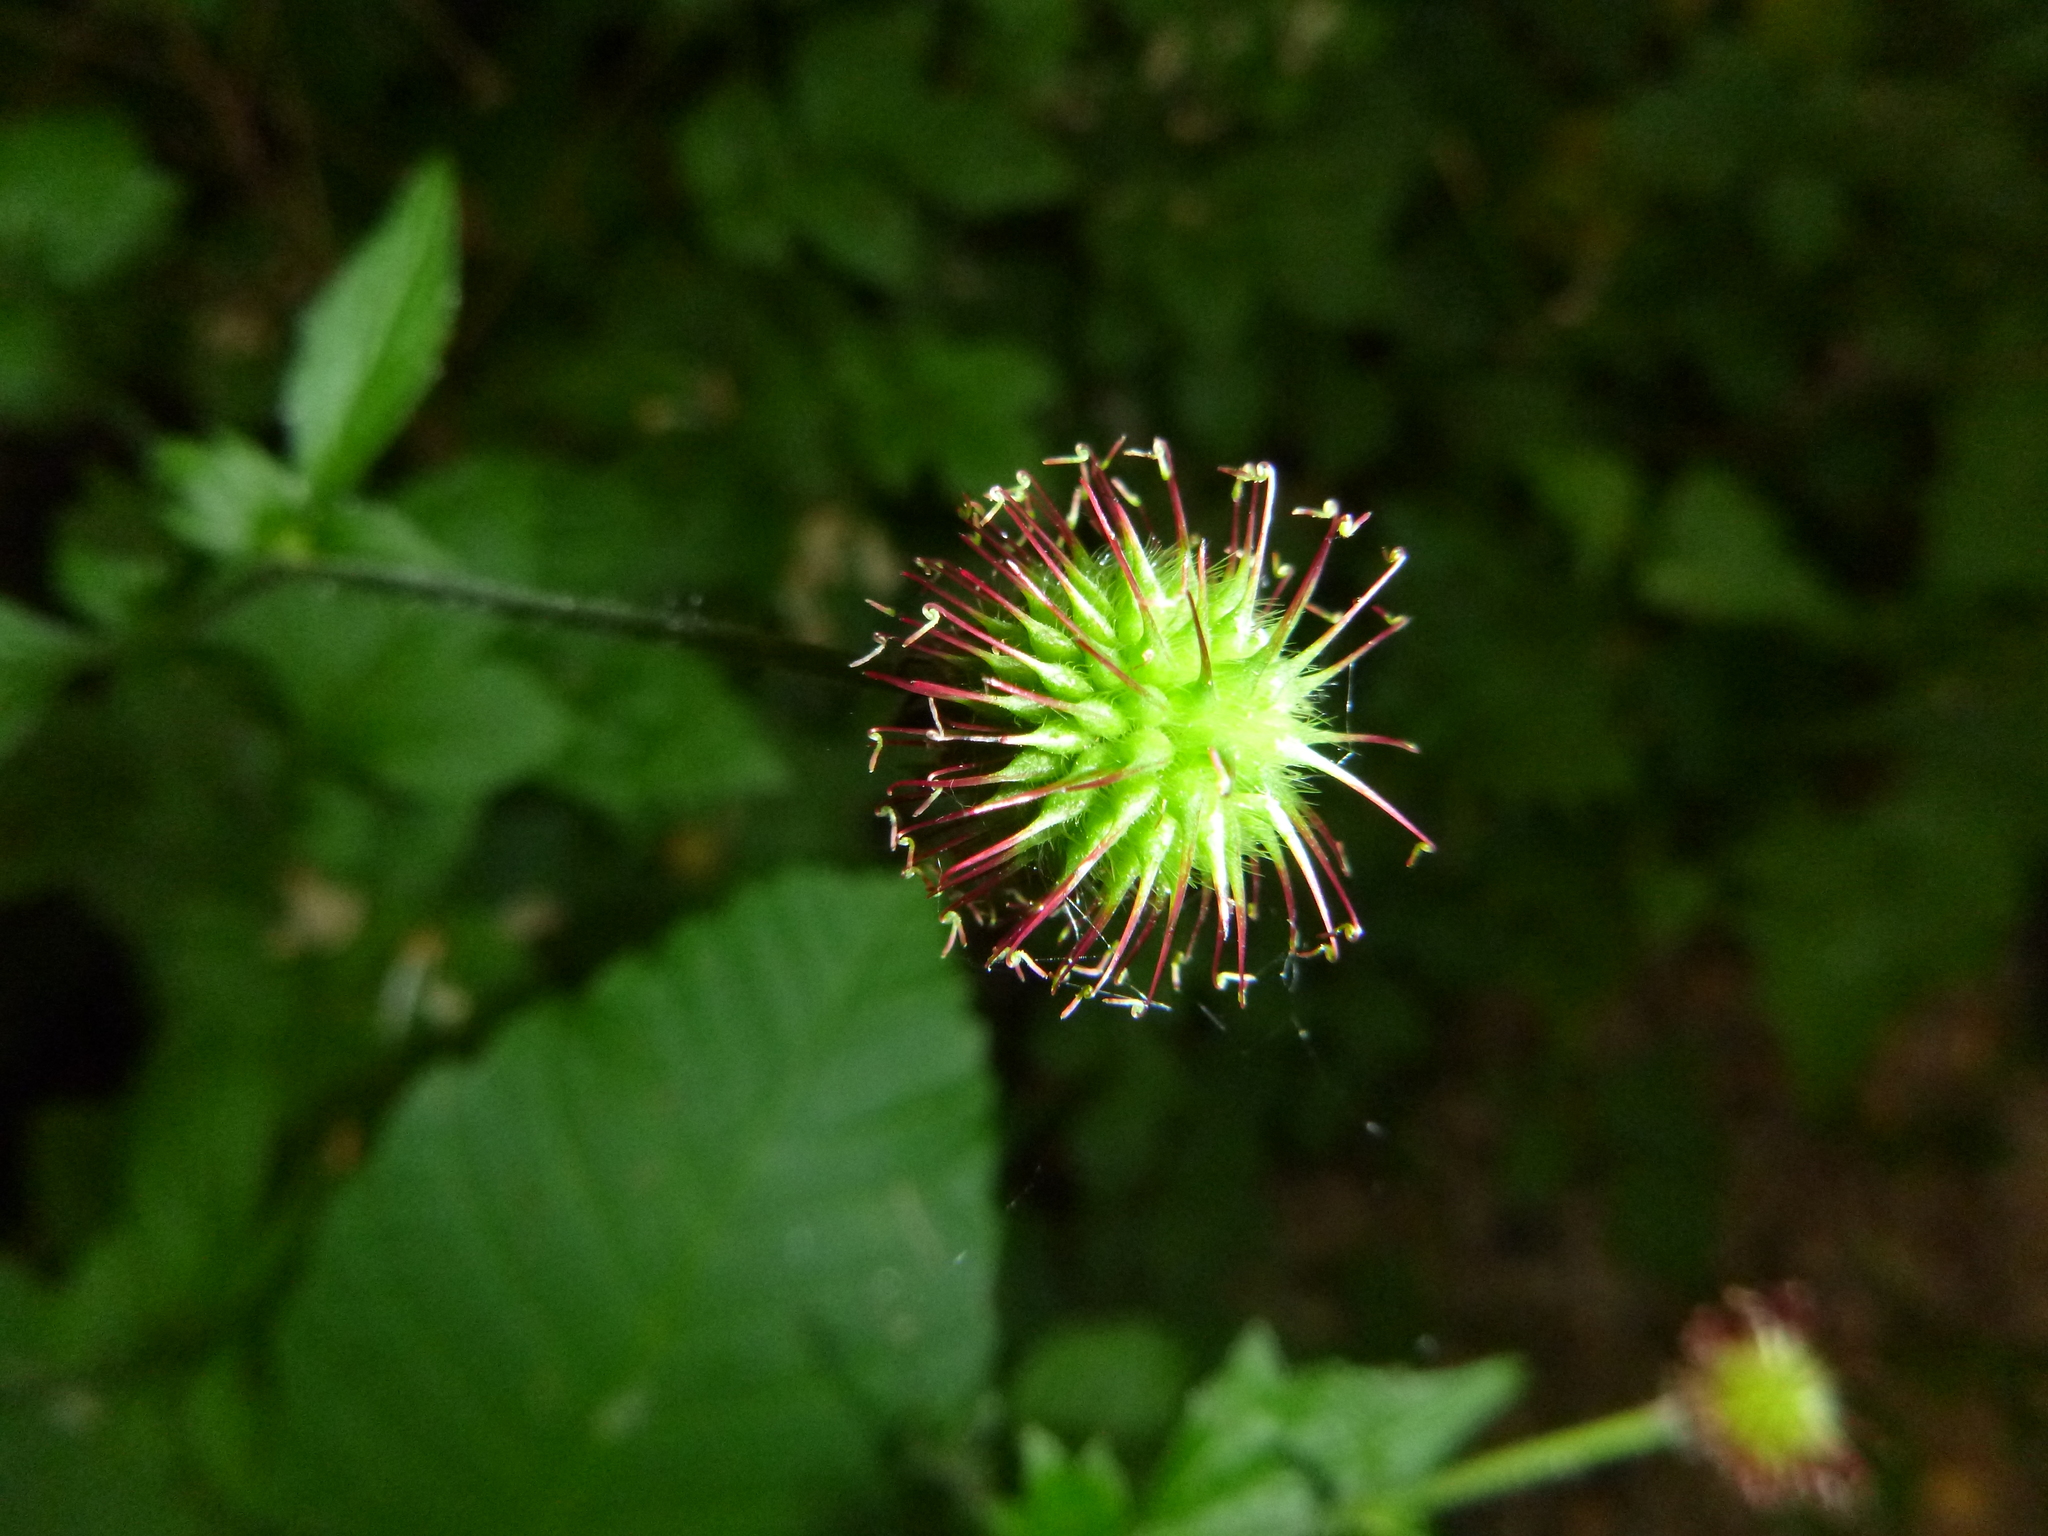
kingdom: Plantae
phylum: Tracheophyta
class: Magnoliopsida
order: Rosales
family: Rosaceae
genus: Geum
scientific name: Geum urbanum
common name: Wood avens
